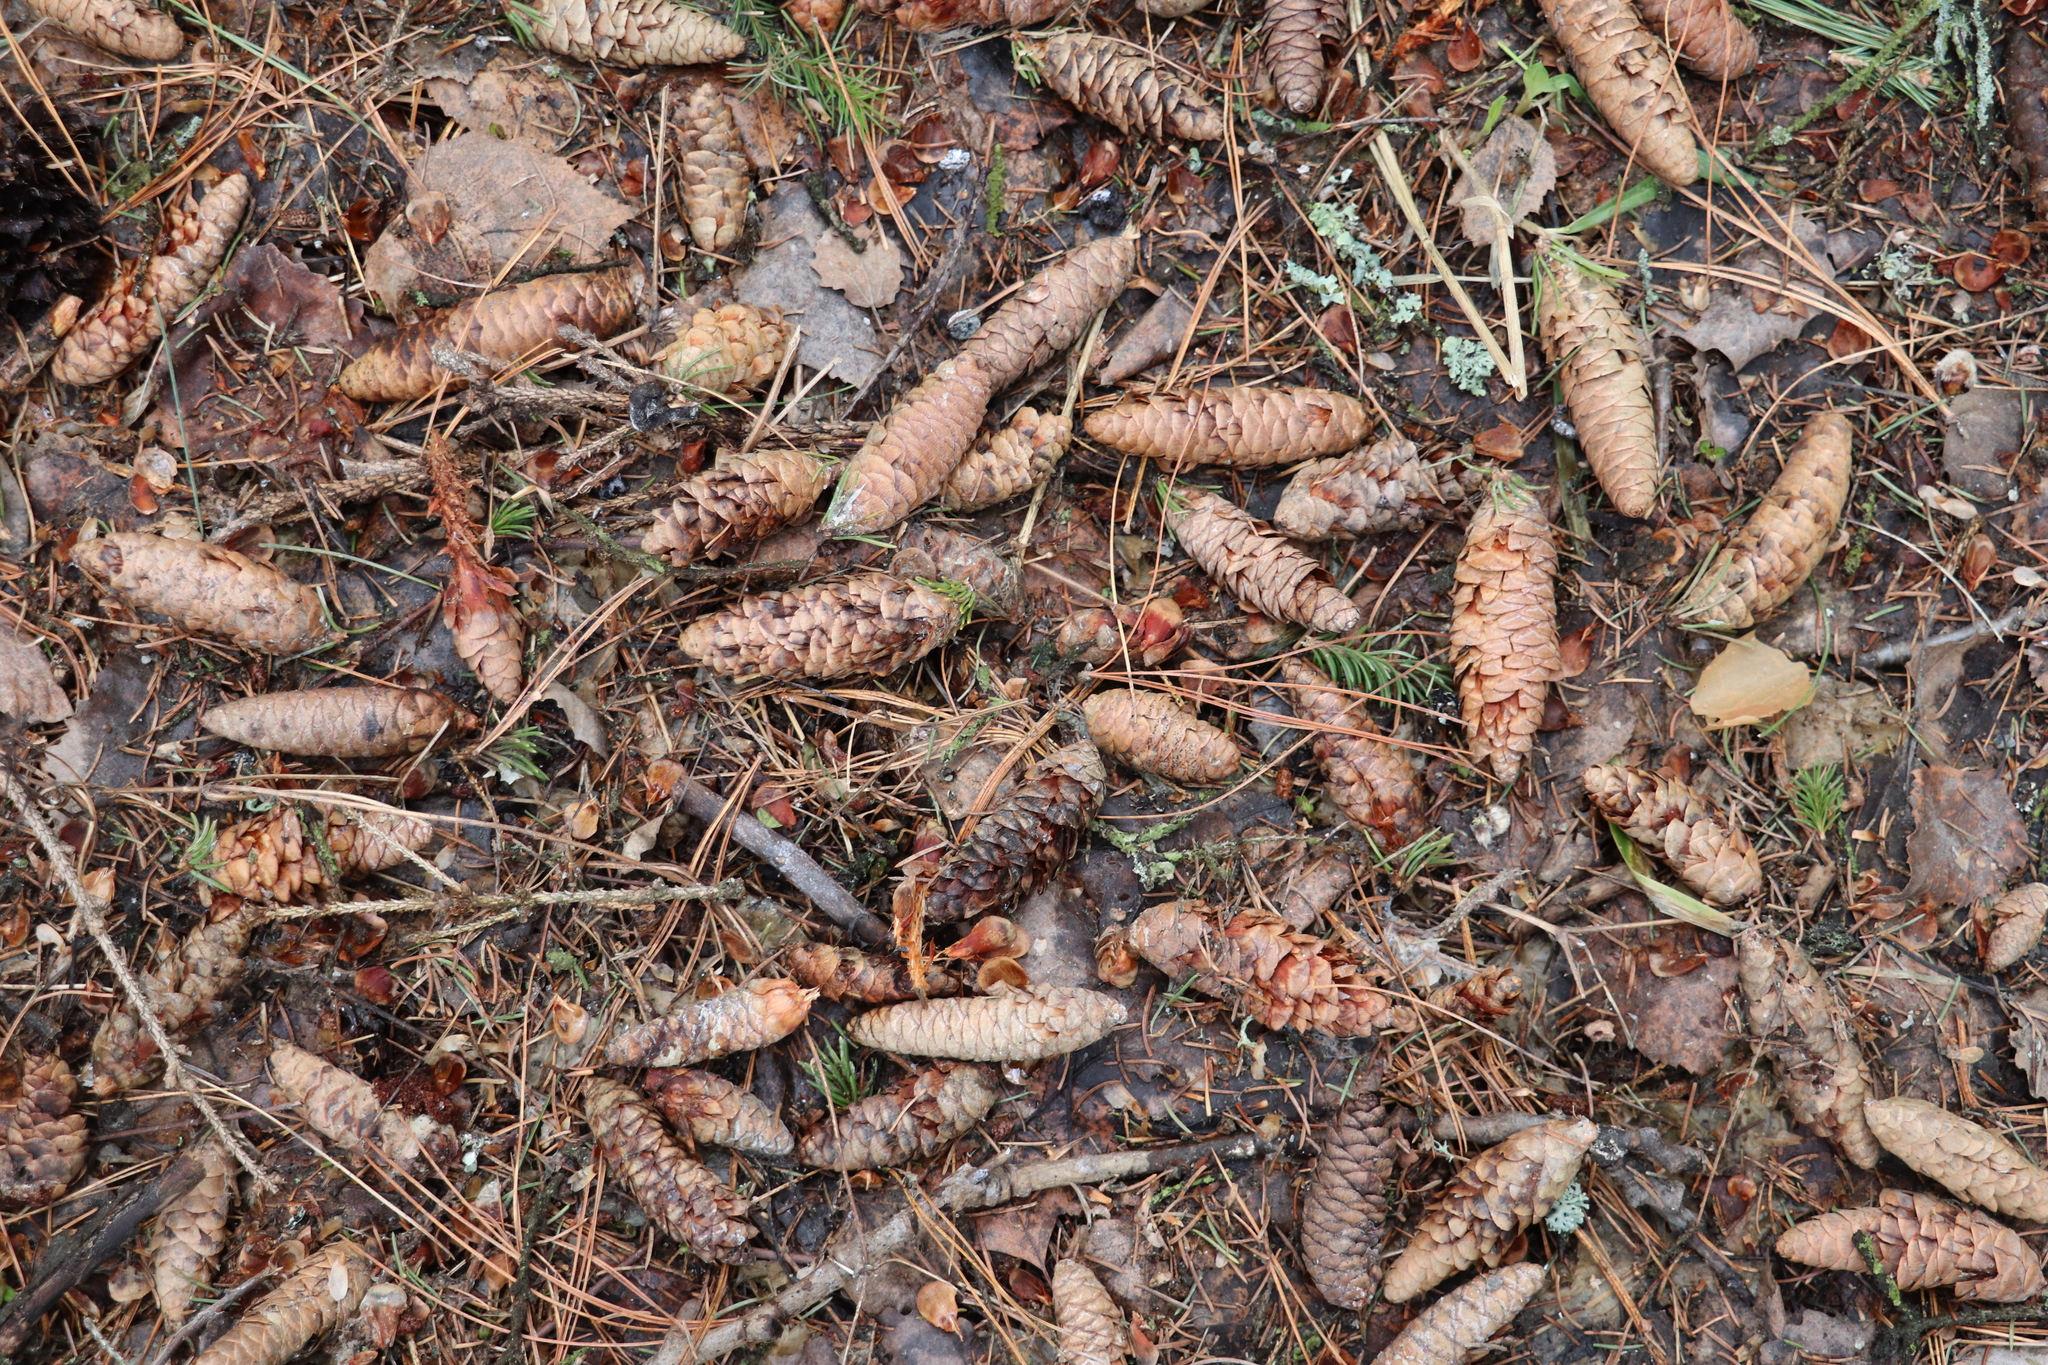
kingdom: Plantae
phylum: Tracheophyta
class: Pinopsida
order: Pinales
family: Pinaceae
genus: Picea
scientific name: Picea obovata
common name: Siberian spruce
